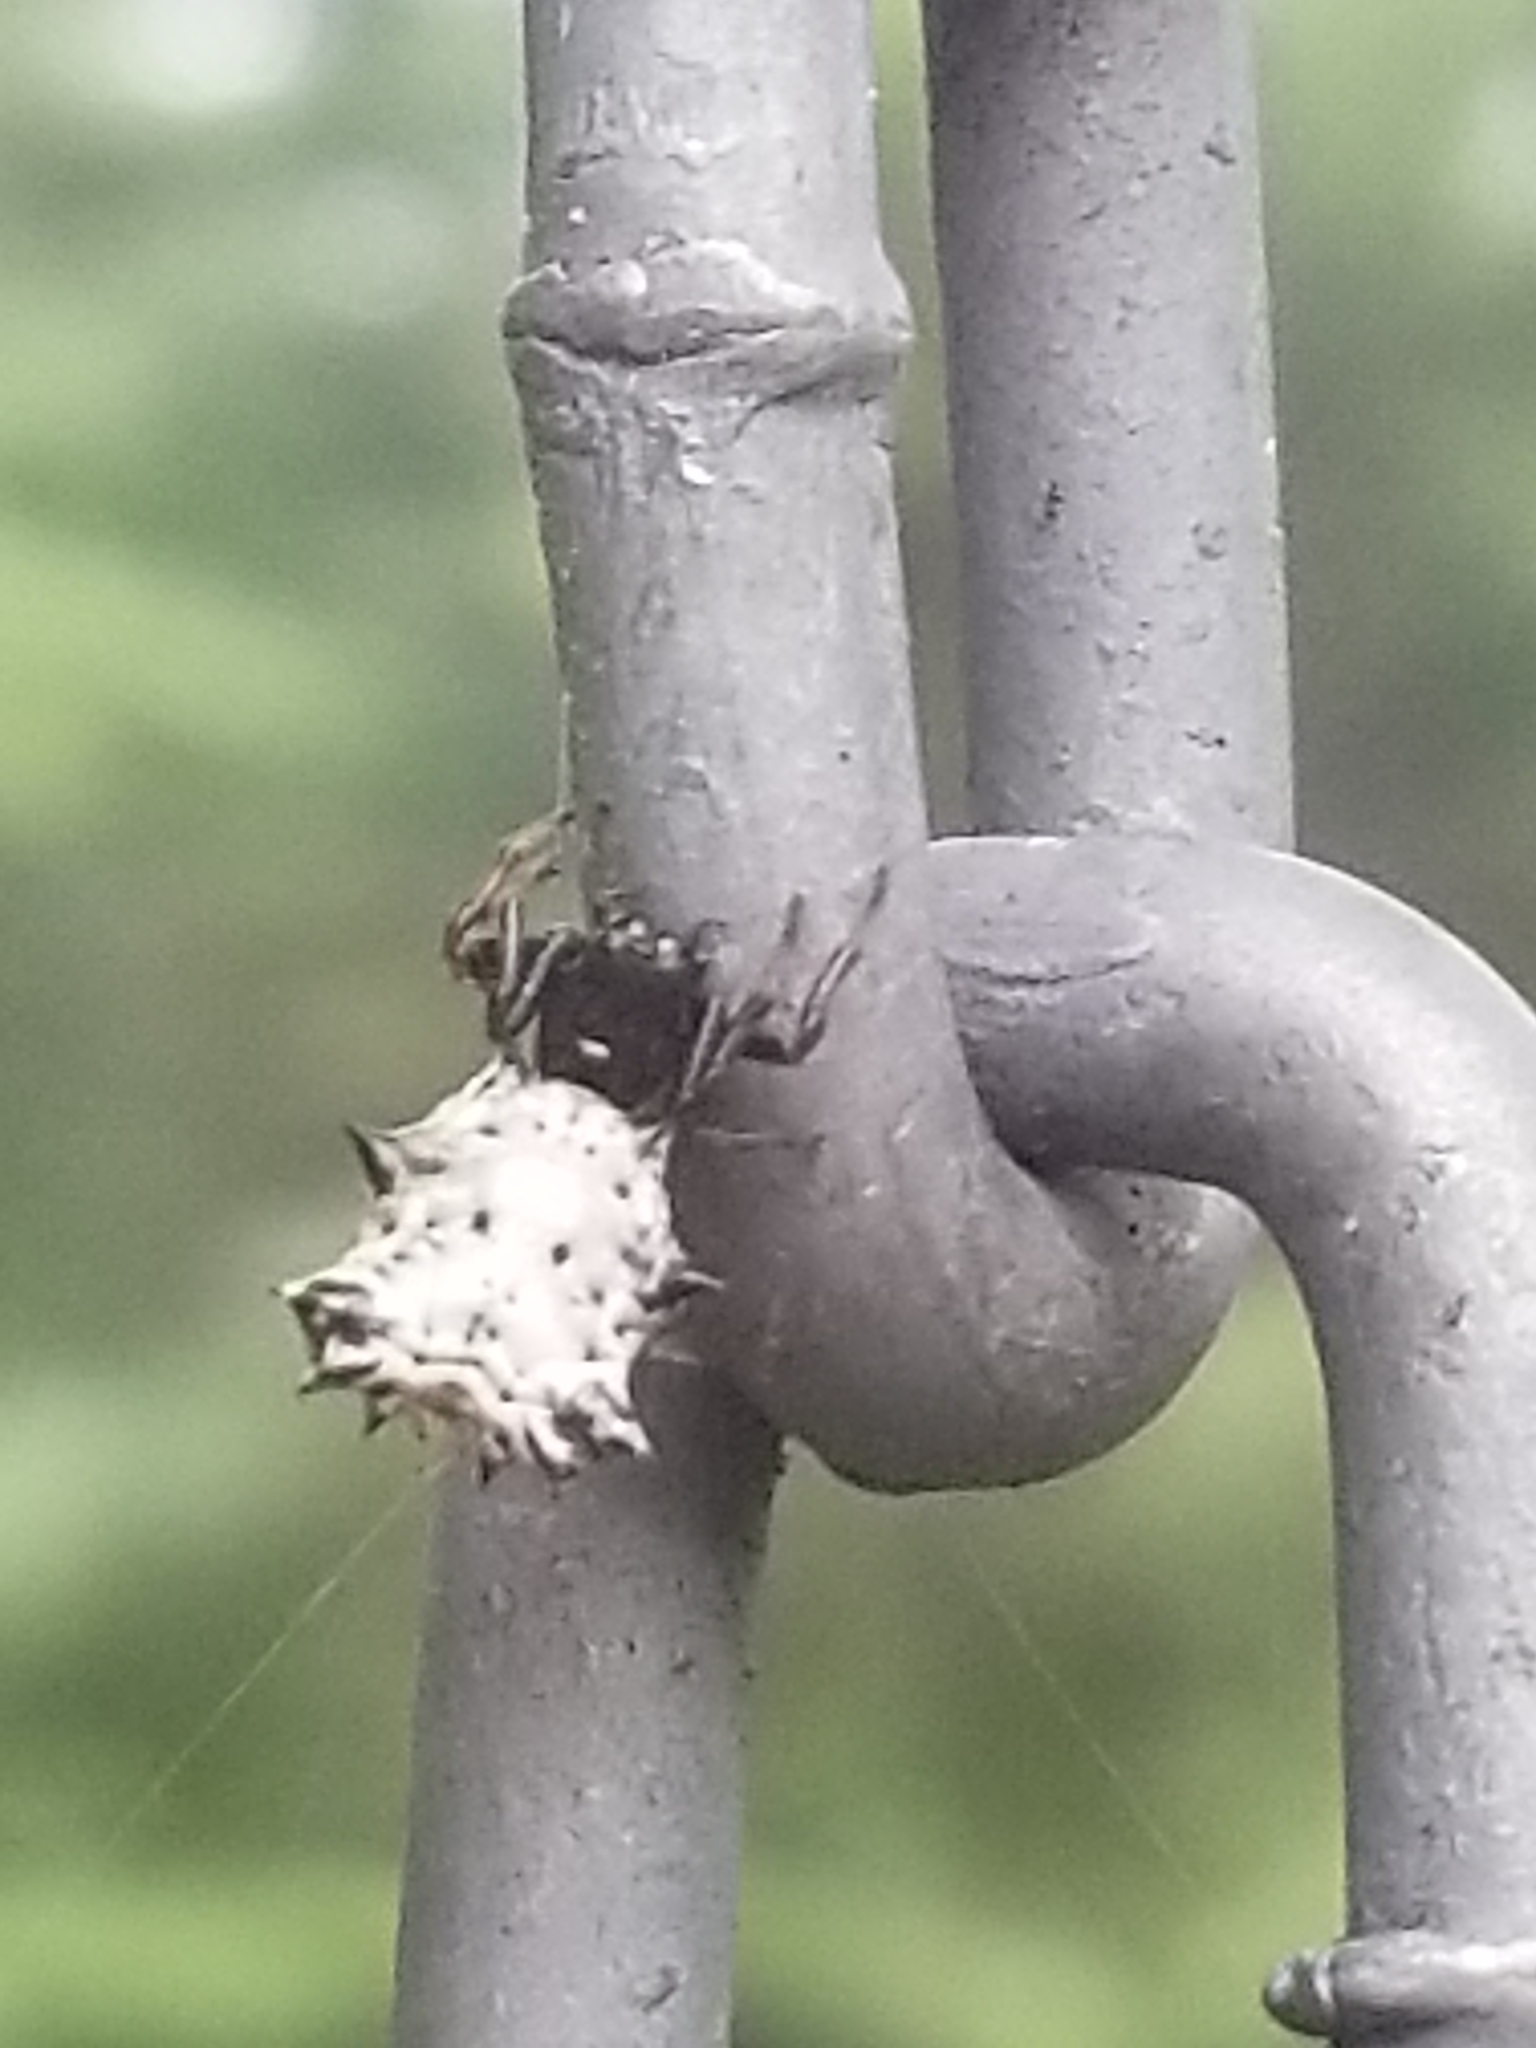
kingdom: Animalia
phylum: Arthropoda
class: Arachnida
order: Araneae
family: Araneidae
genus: Micrathena
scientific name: Micrathena gracilis
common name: Orb weavers
